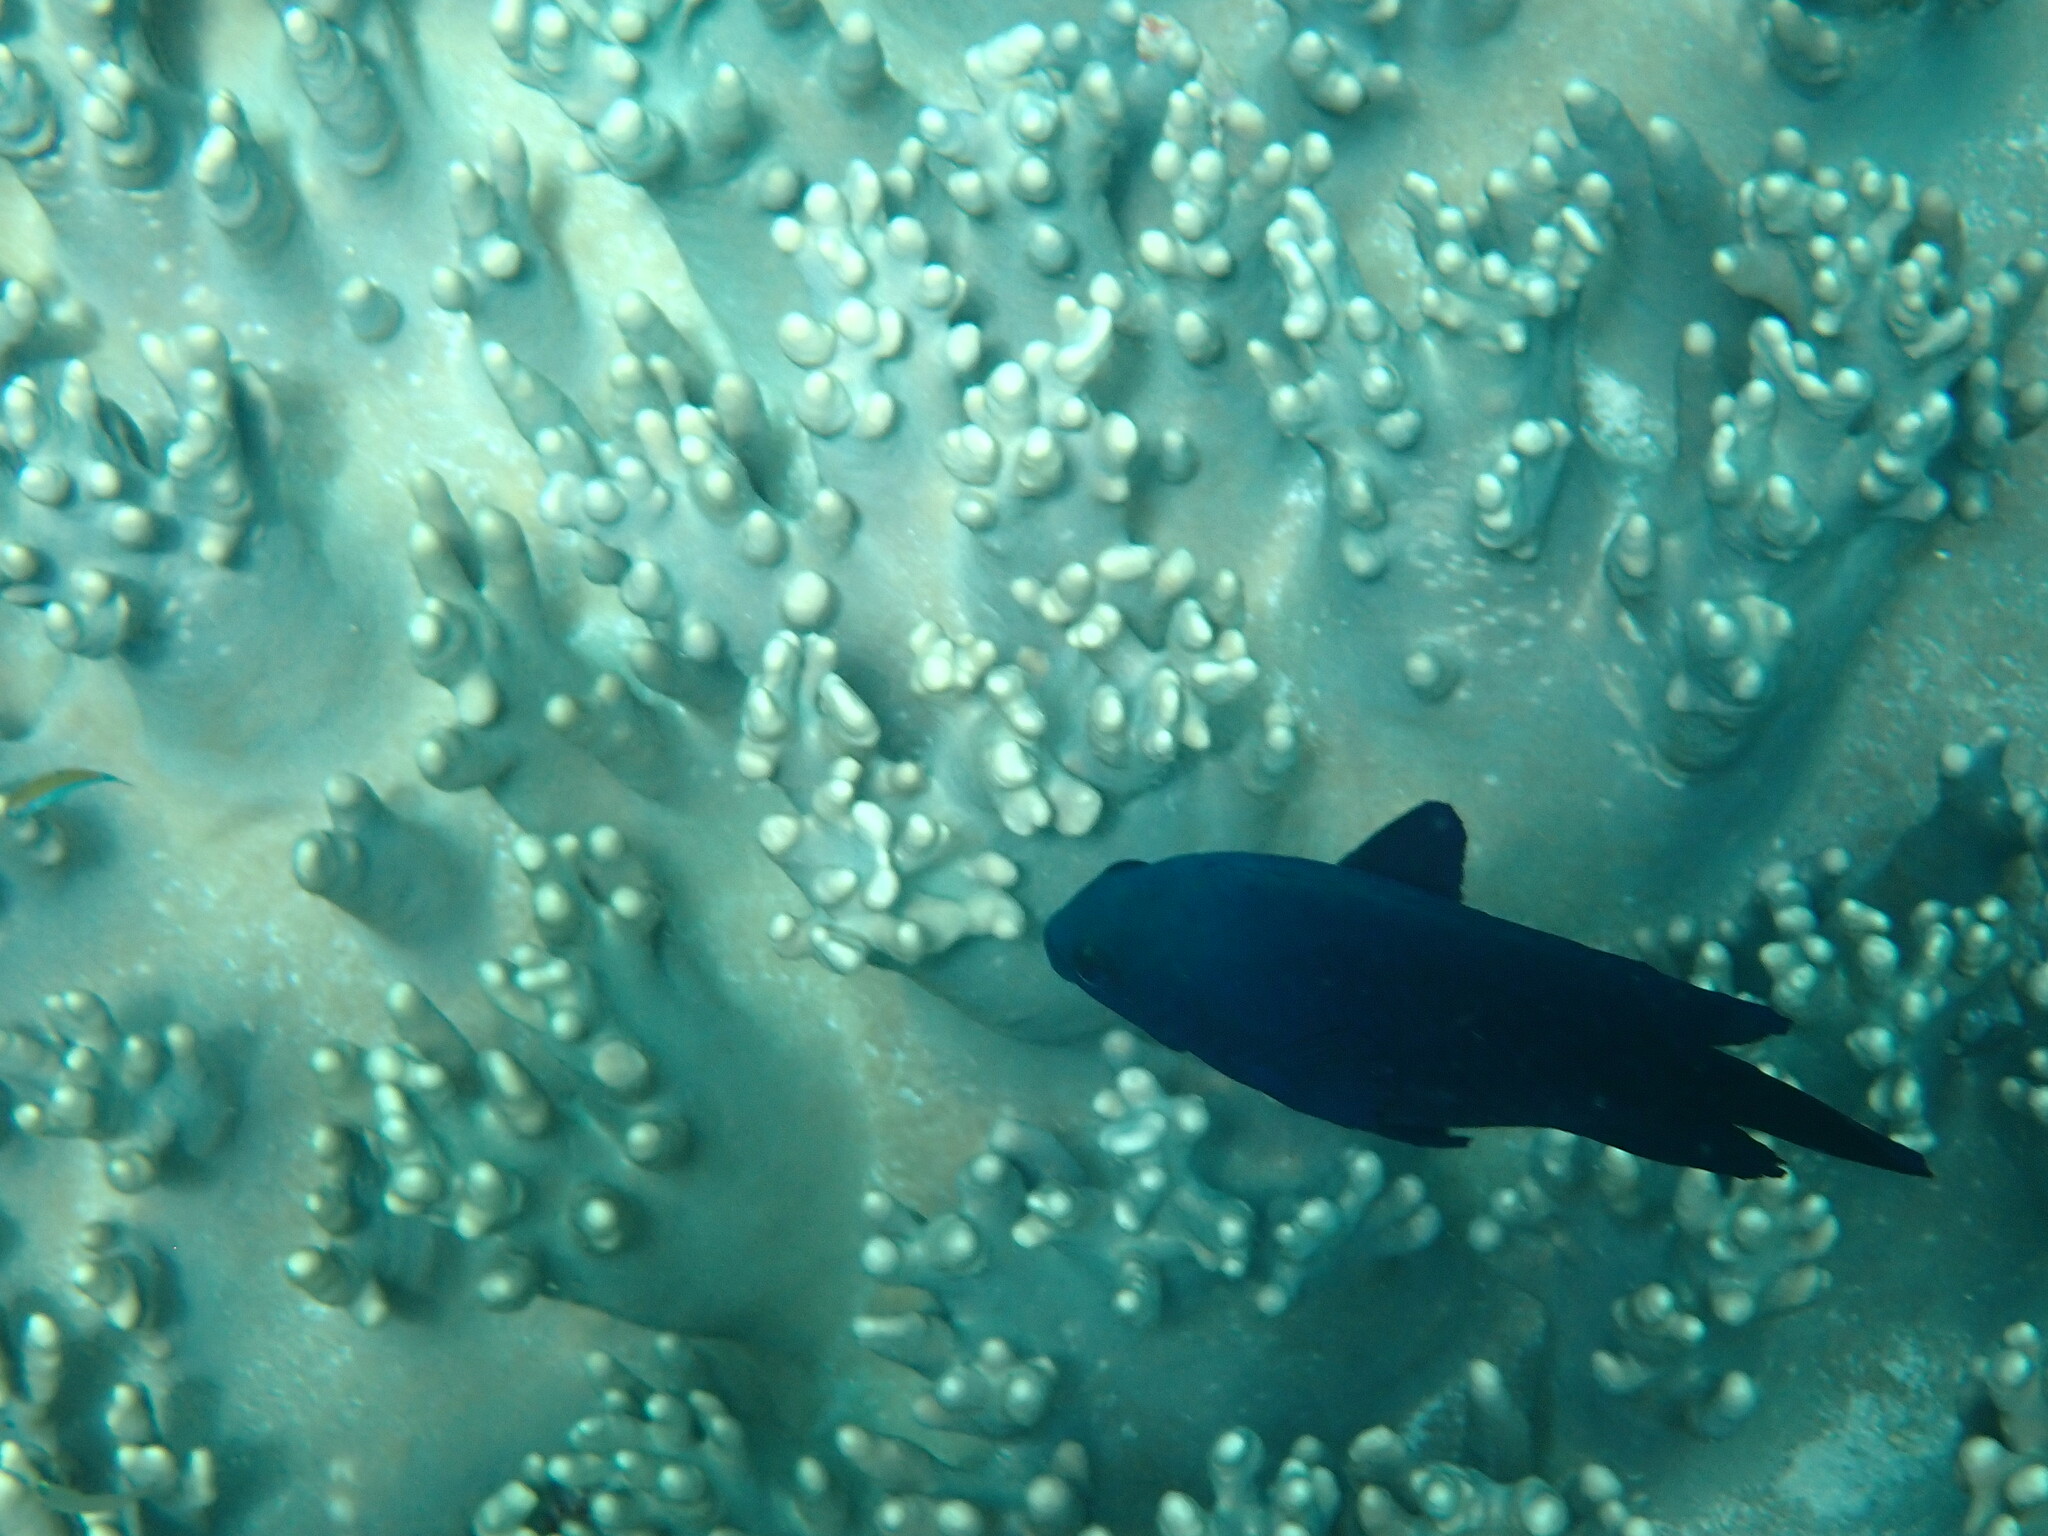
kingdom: Animalia
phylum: Chordata
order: Perciformes
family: Pomacentridae
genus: Neoglyphidodon
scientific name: Neoglyphidodon melas
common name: Black damsel
